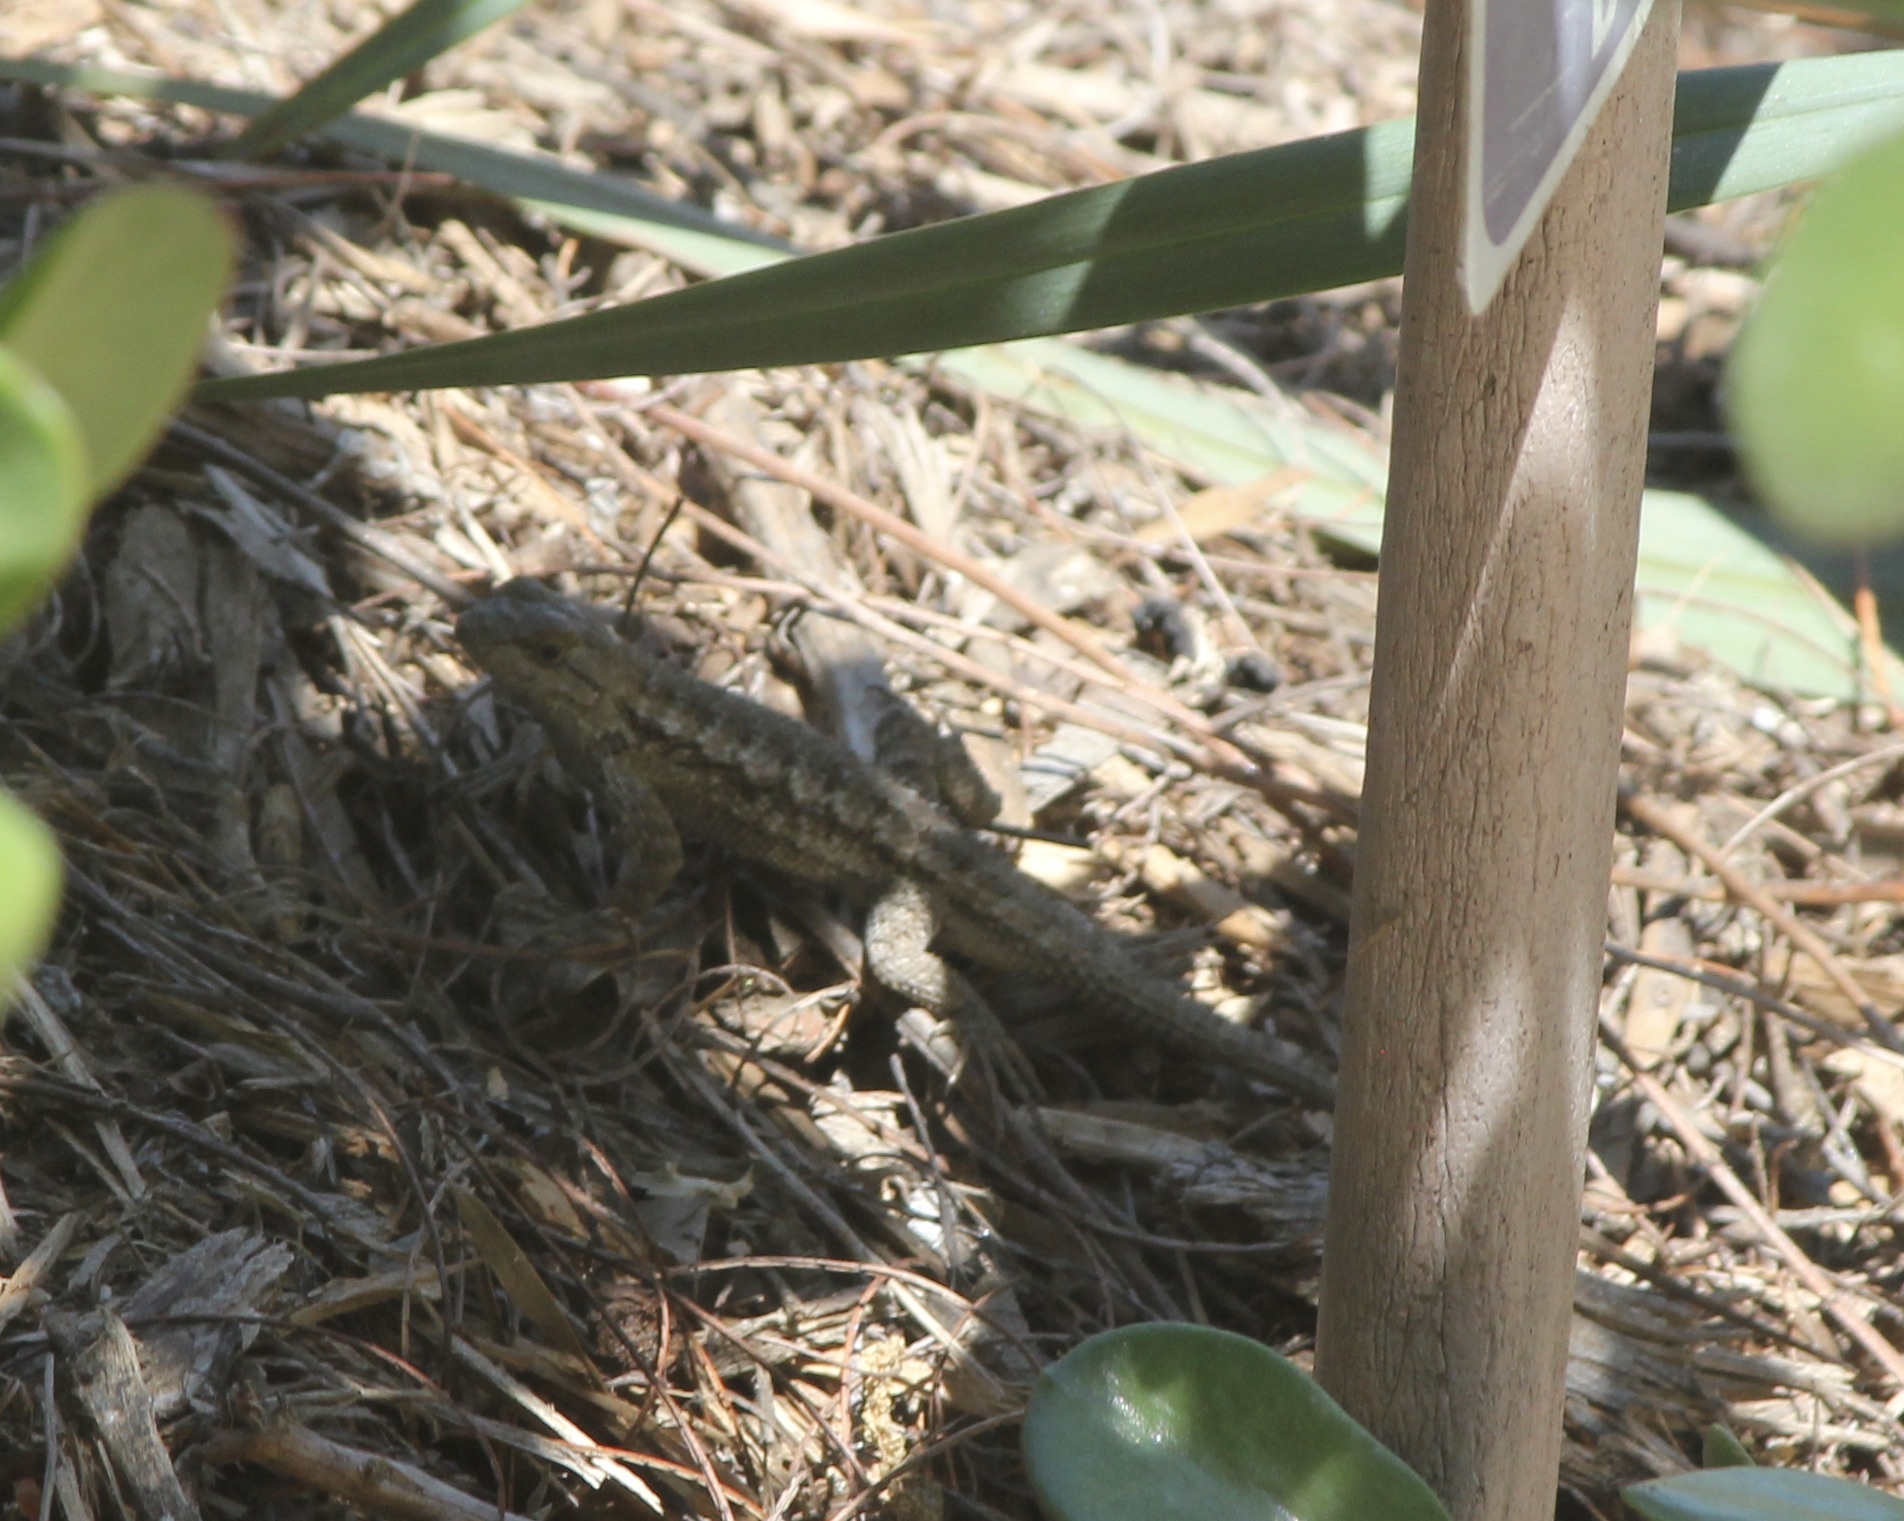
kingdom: Animalia
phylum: Chordata
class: Squamata
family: Phrynosomatidae
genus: Sceloporus
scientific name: Sceloporus occidentalis
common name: Western fence lizard
